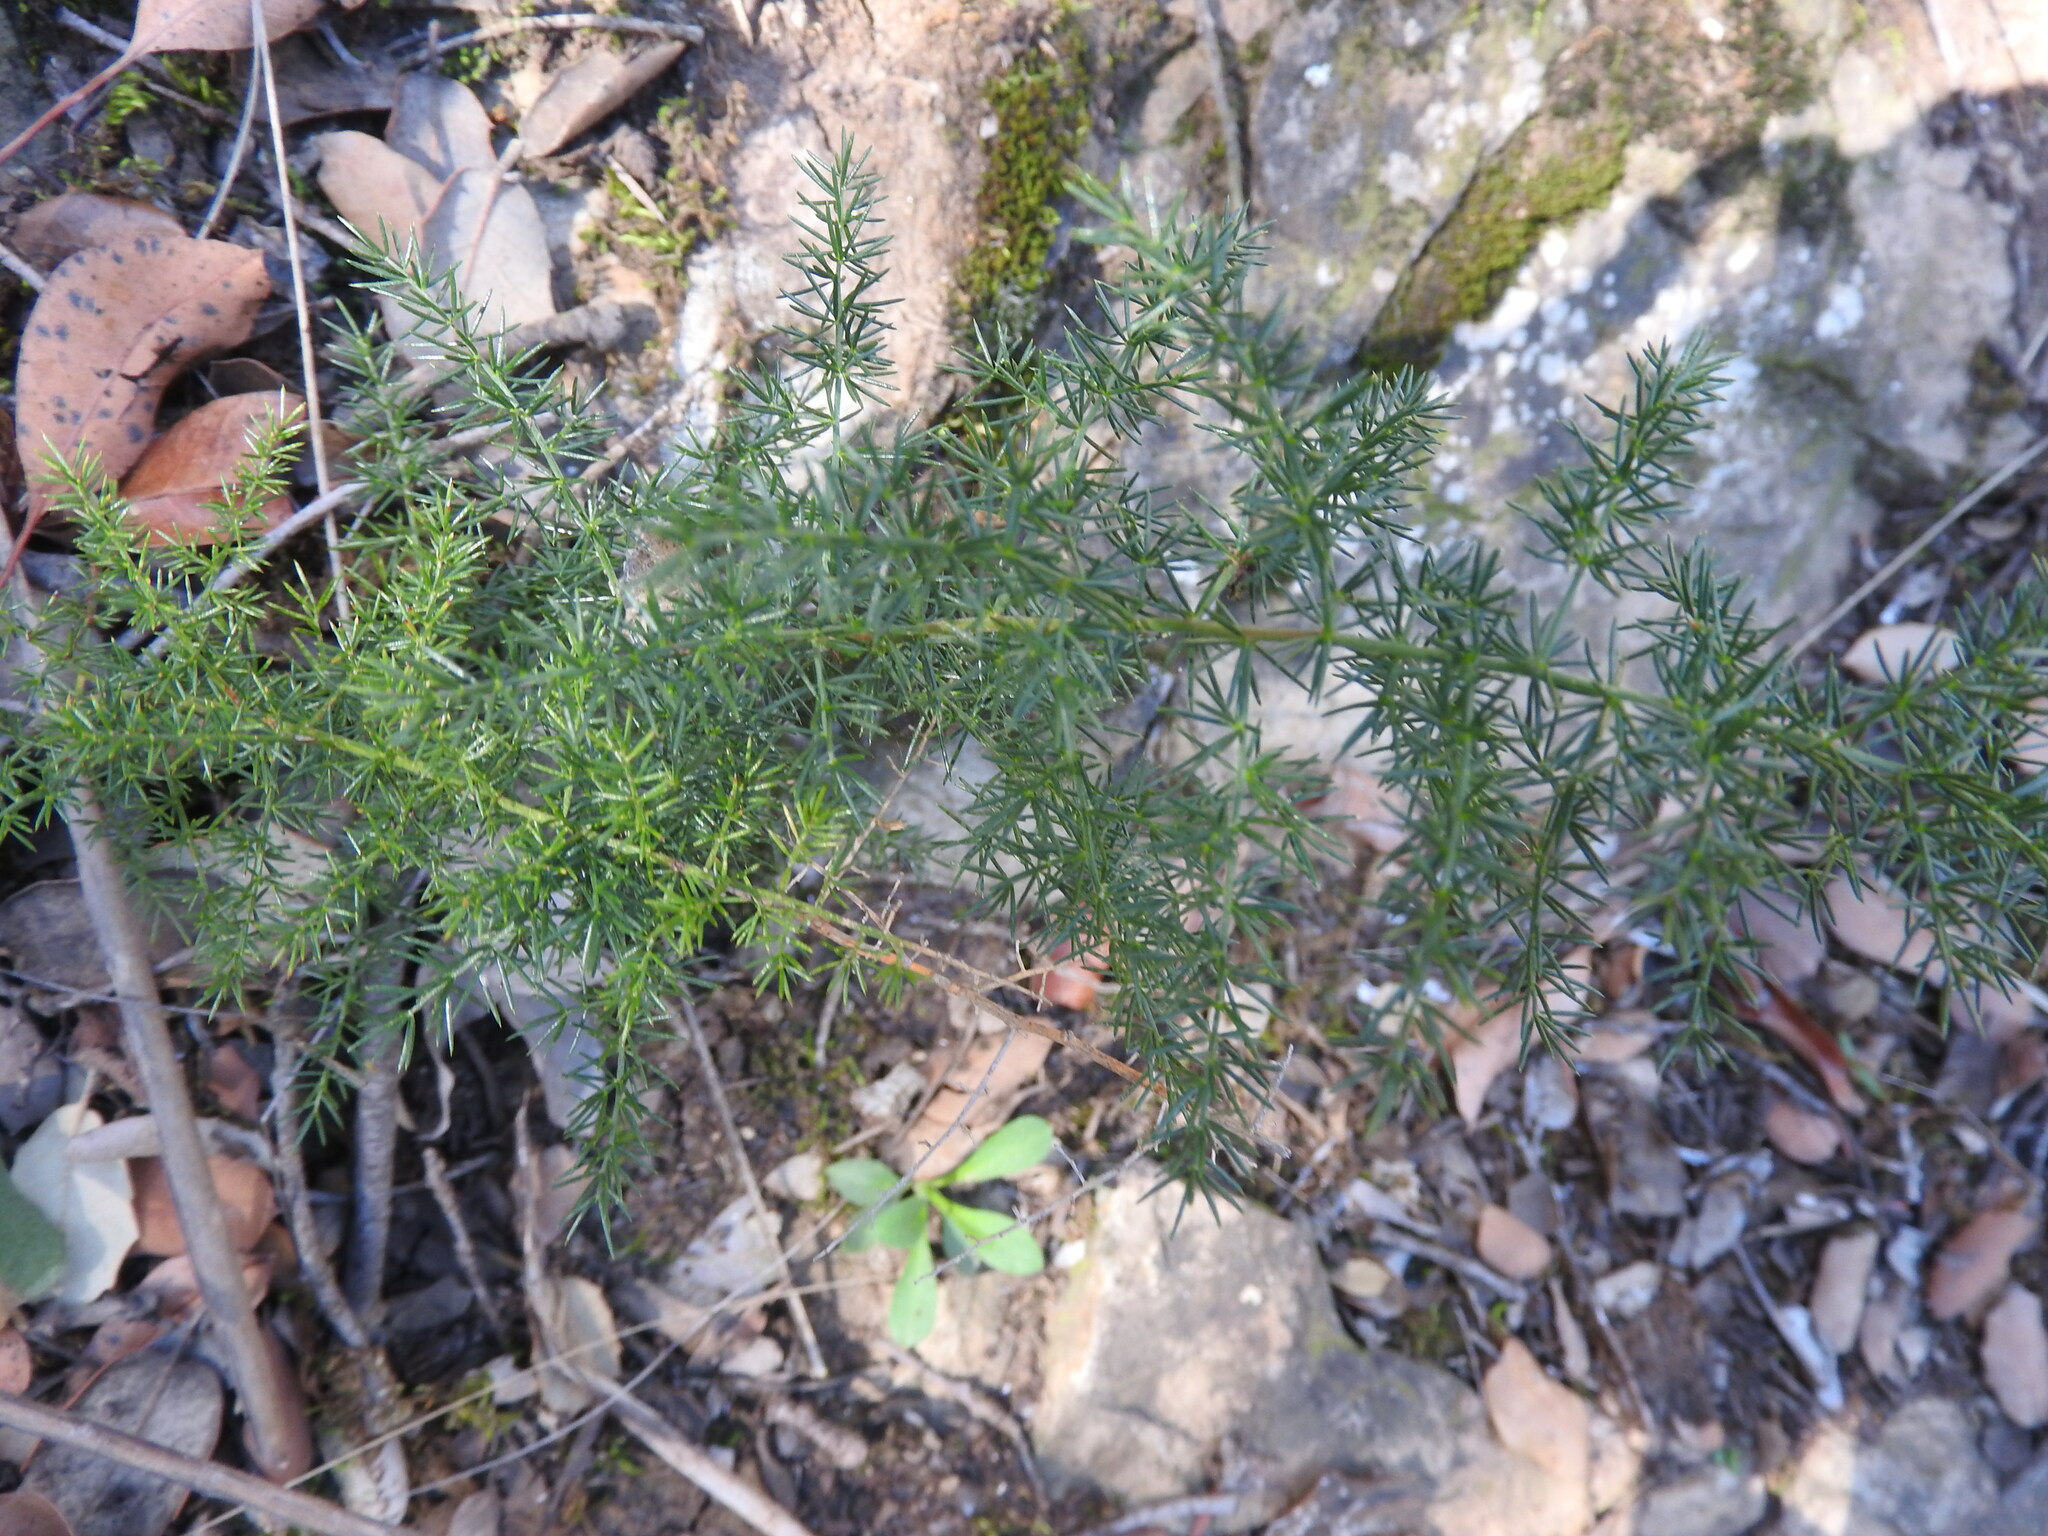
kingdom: Plantae
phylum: Tracheophyta
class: Liliopsida
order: Asparagales
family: Asparagaceae
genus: Asparagus
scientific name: Asparagus acutifolius
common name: Wild asparagus
